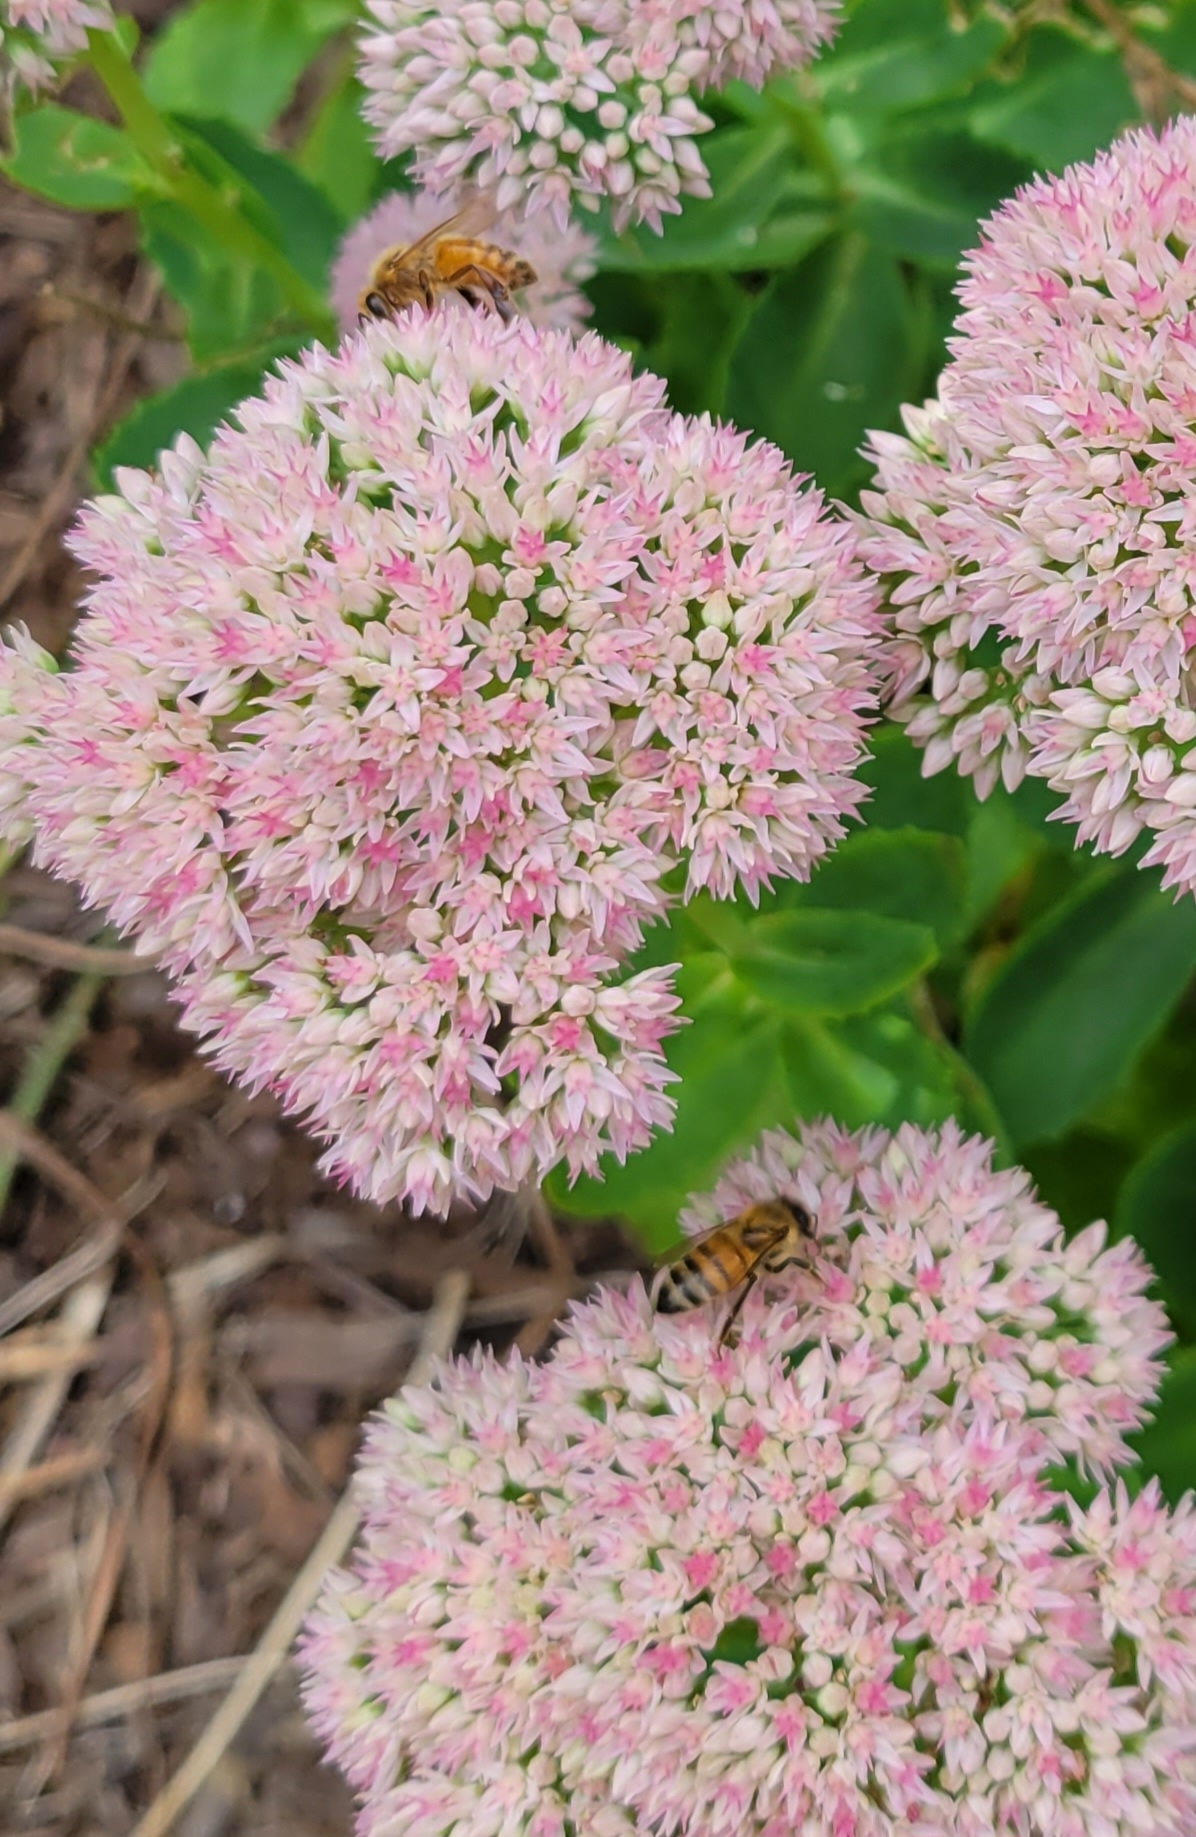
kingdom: Animalia
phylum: Arthropoda
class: Insecta
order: Hymenoptera
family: Apidae
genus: Apis
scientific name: Apis mellifera
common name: Honey bee
